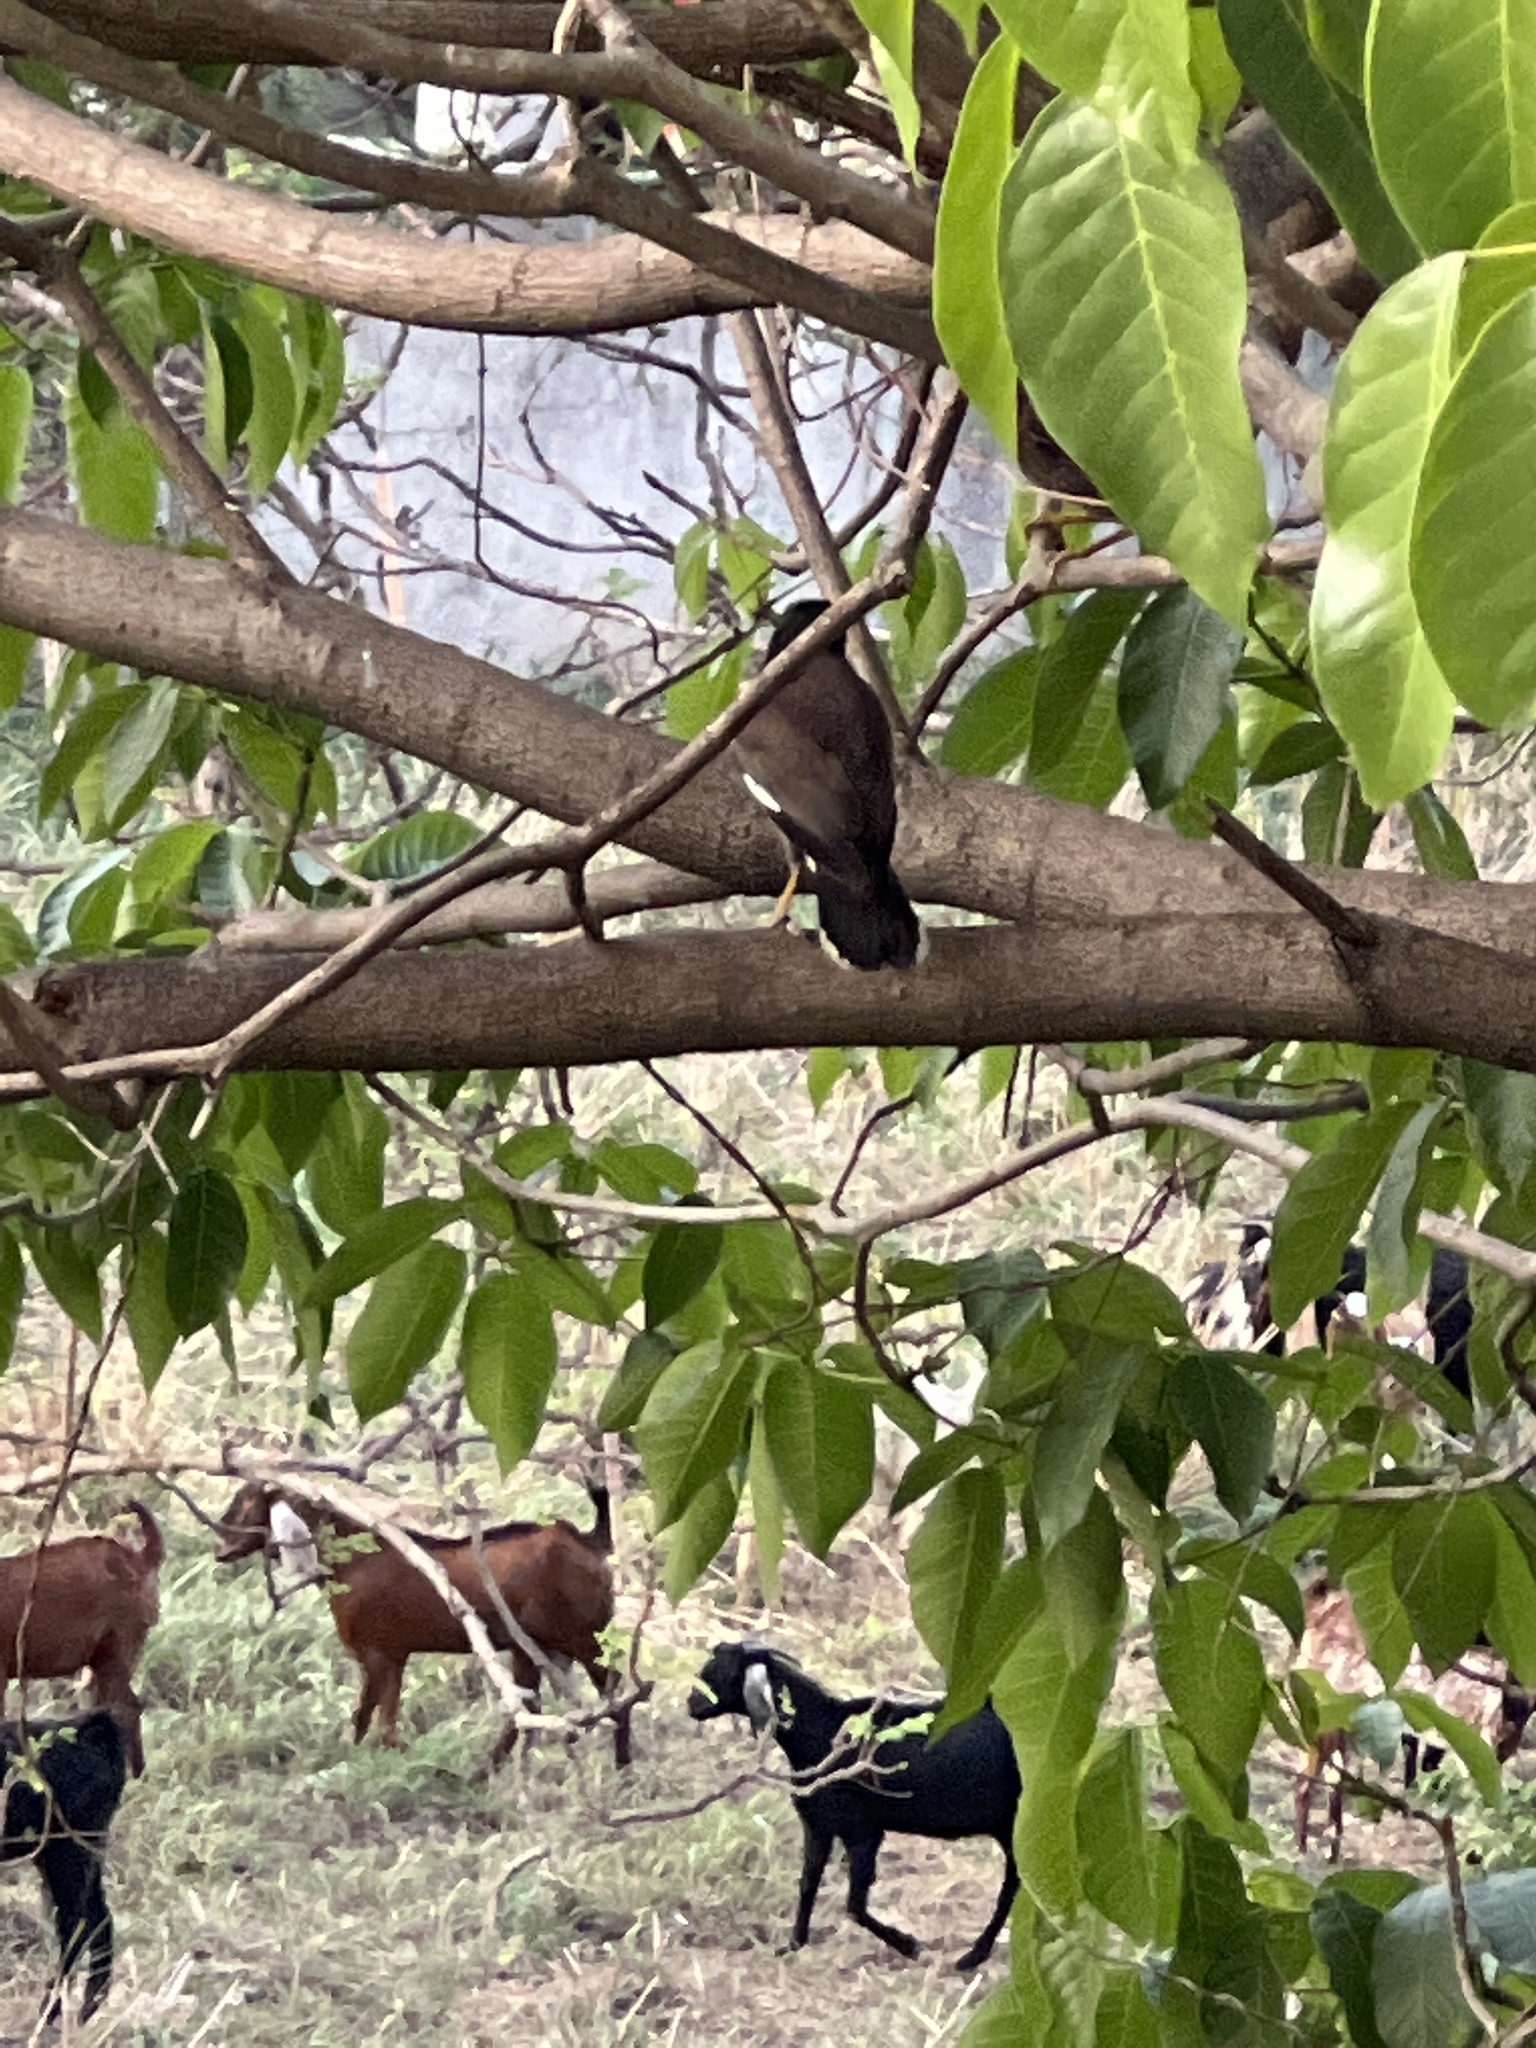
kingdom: Animalia
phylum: Chordata
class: Aves
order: Passeriformes
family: Sturnidae
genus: Acridotheres
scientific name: Acridotheres tristis
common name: Common myna
